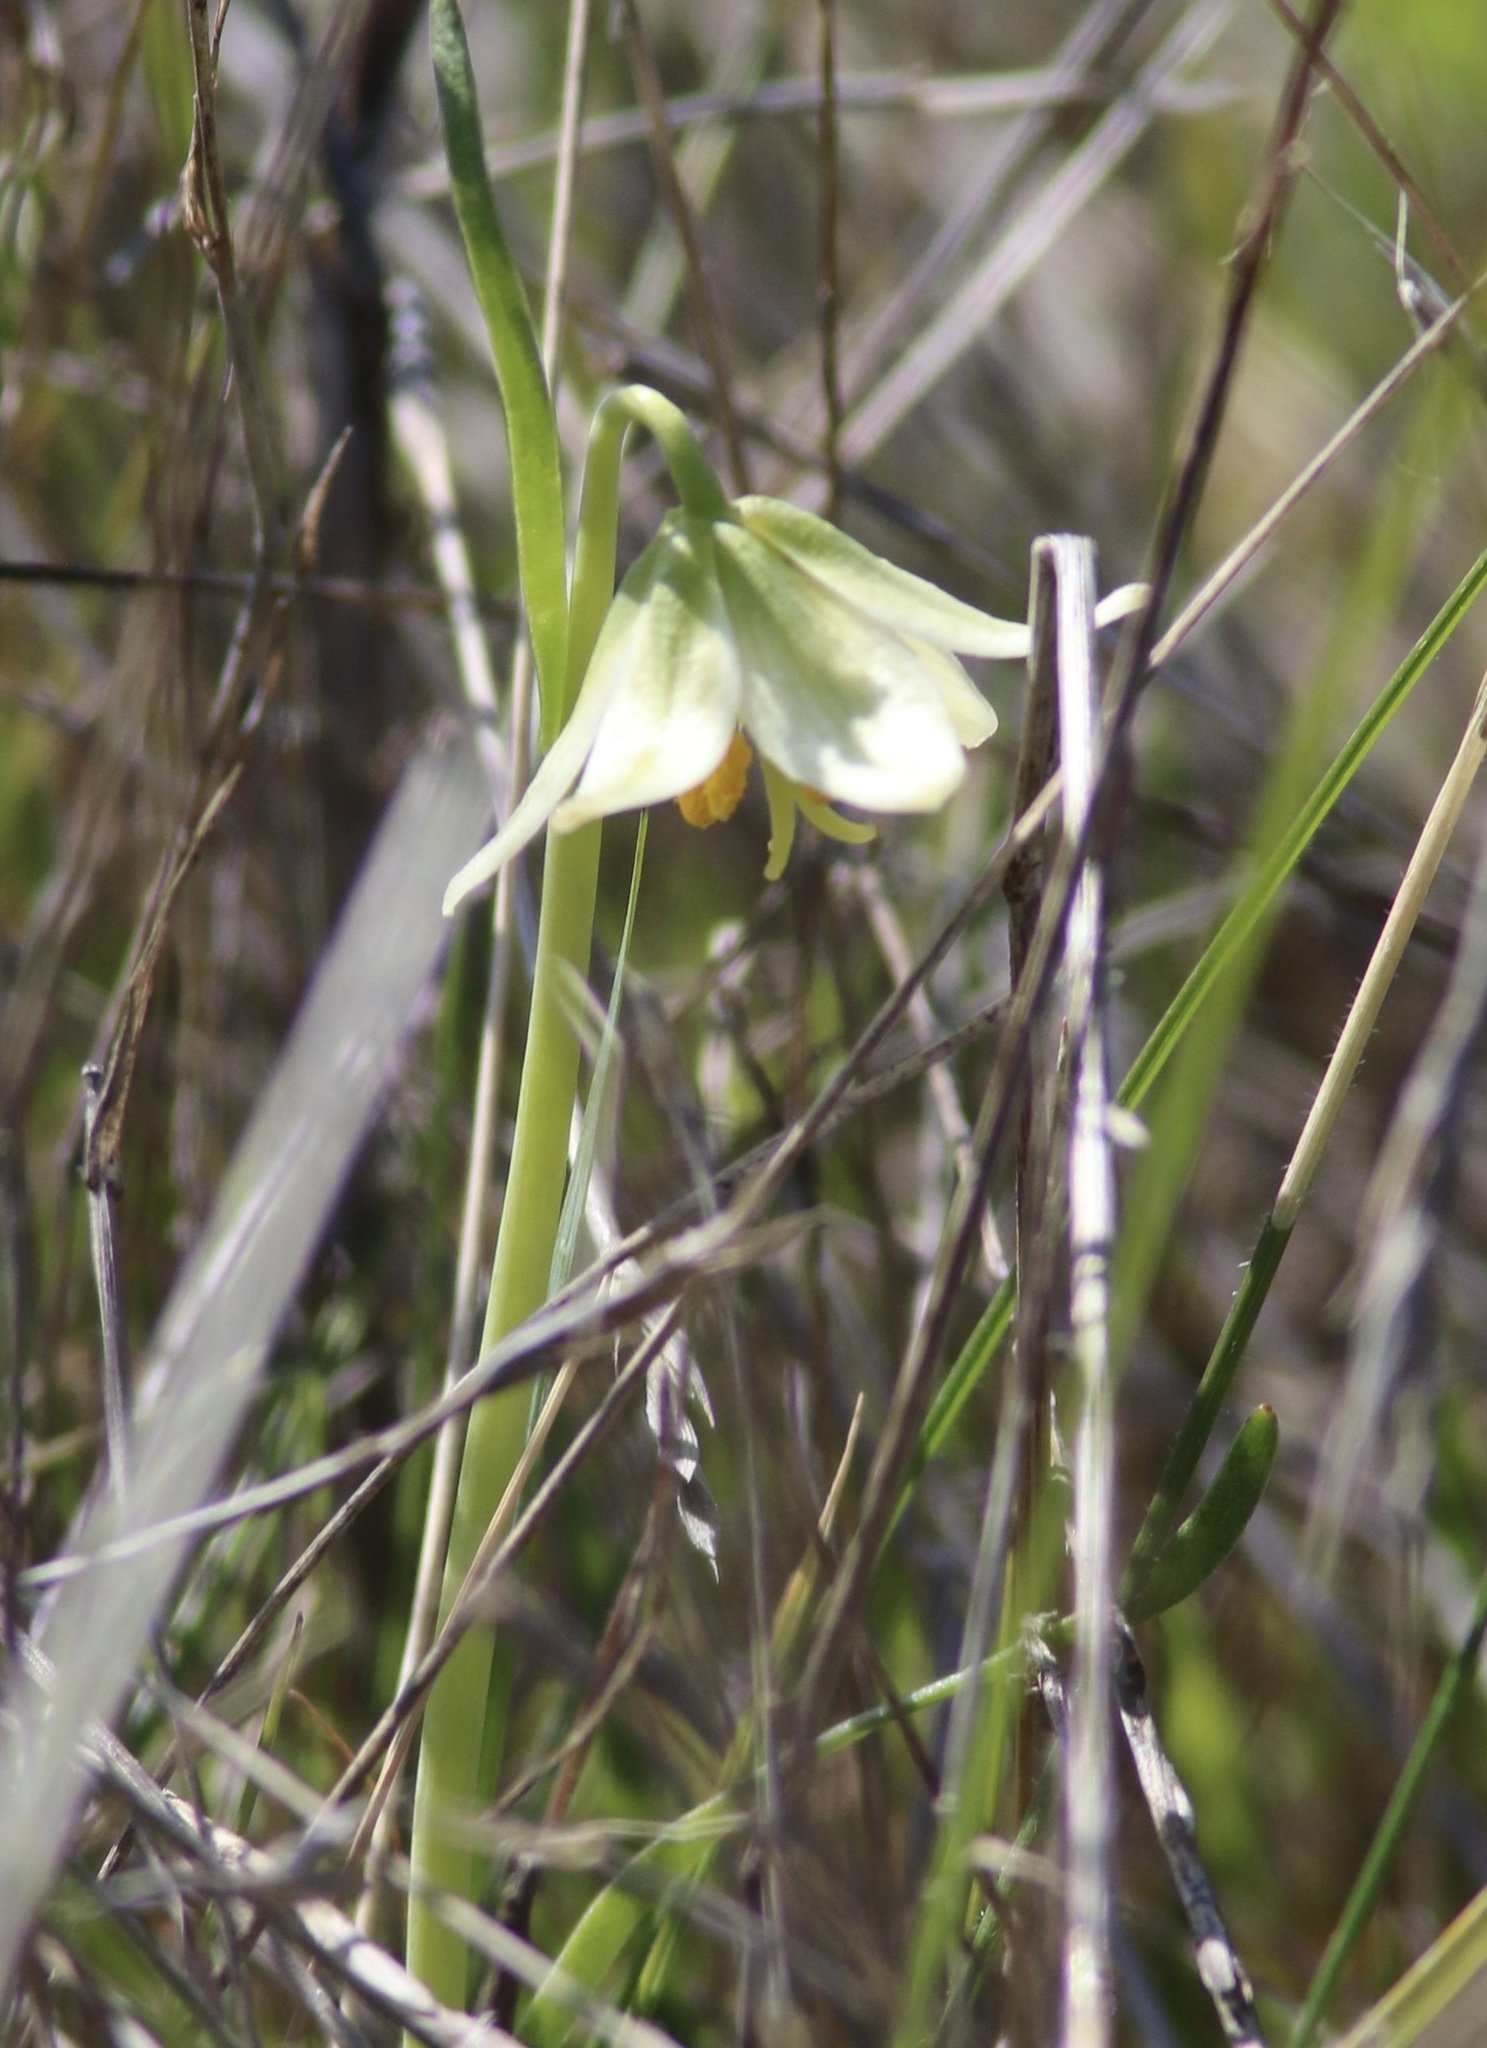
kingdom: Plantae
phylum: Tracheophyta
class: Liliopsida
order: Liliales
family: Liliaceae
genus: Fritillaria
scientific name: Fritillaria liliacea
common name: Fragrant fritillary
